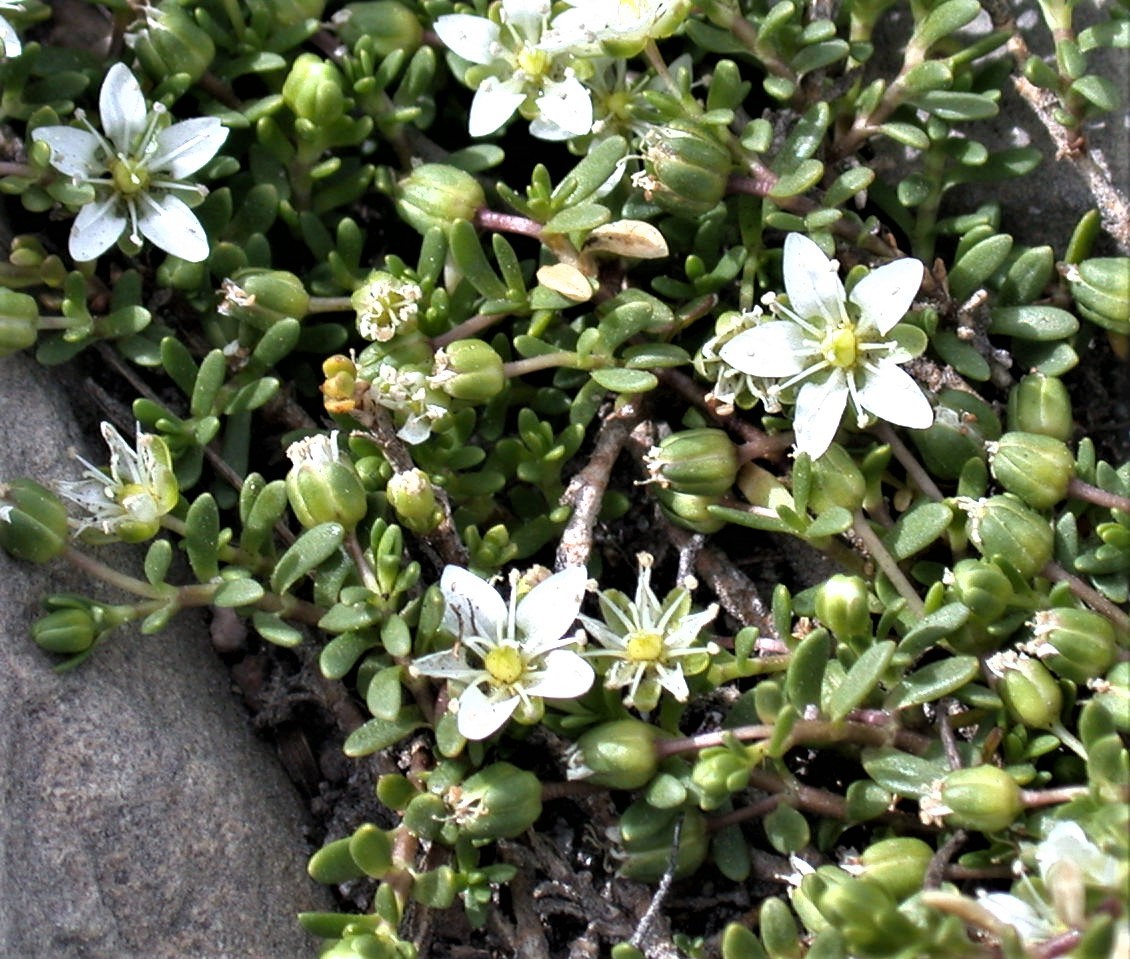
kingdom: Plantae
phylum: Tracheophyta
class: Magnoliopsida
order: Caryophyllales
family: Caryophyllaceae
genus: Arenaria
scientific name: Arenaria serpens
